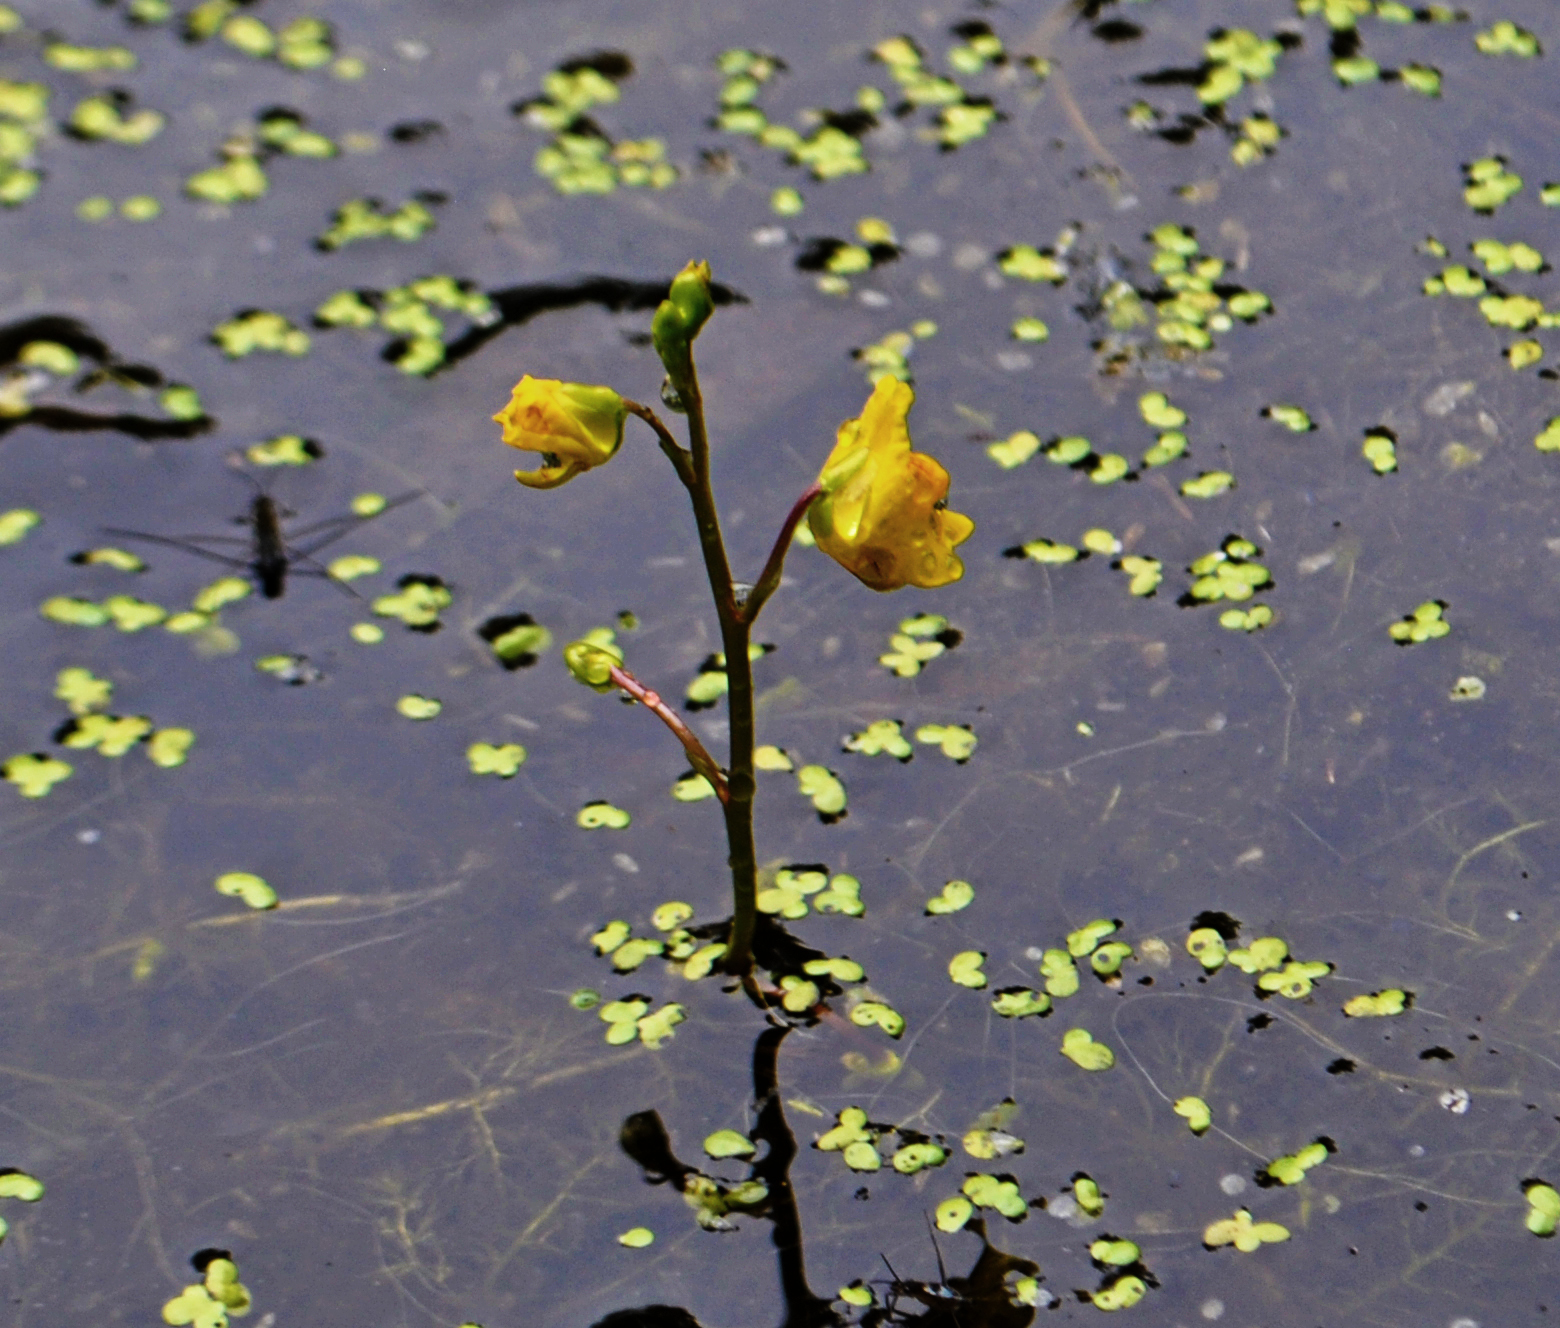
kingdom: Plantae
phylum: Tracheophyta
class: Magnoliopsida
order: Lamiales
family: Lentibulariaceae
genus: Utricularia
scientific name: Utricularia macrorhiza
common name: Common bladderwort
